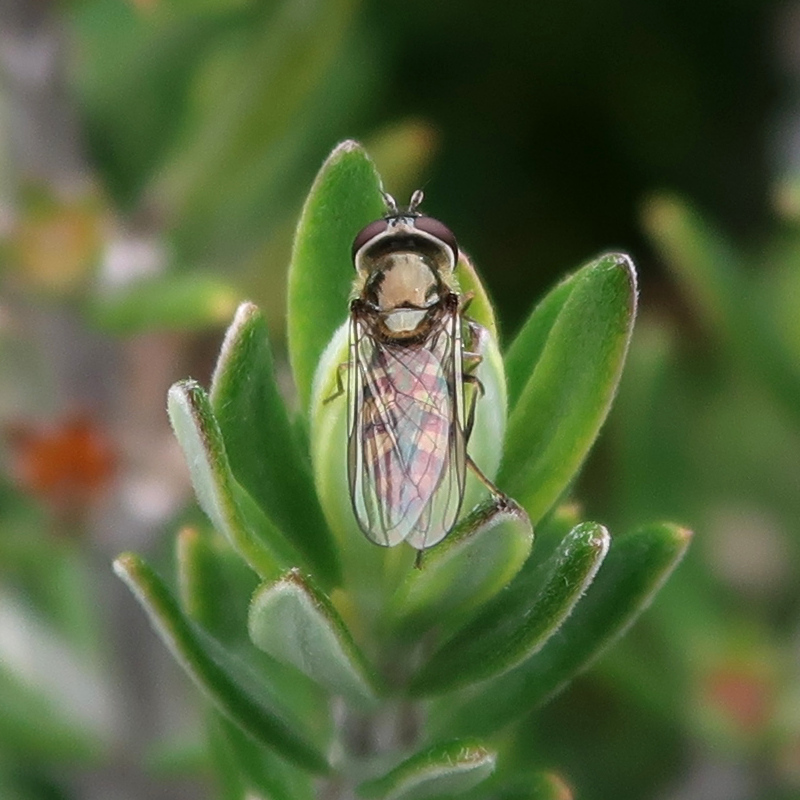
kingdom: Animalia
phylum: Arthropoda
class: Insecta
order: Diptera
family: Syrphidae
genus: Melangyna
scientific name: Melangyna viridiceps
